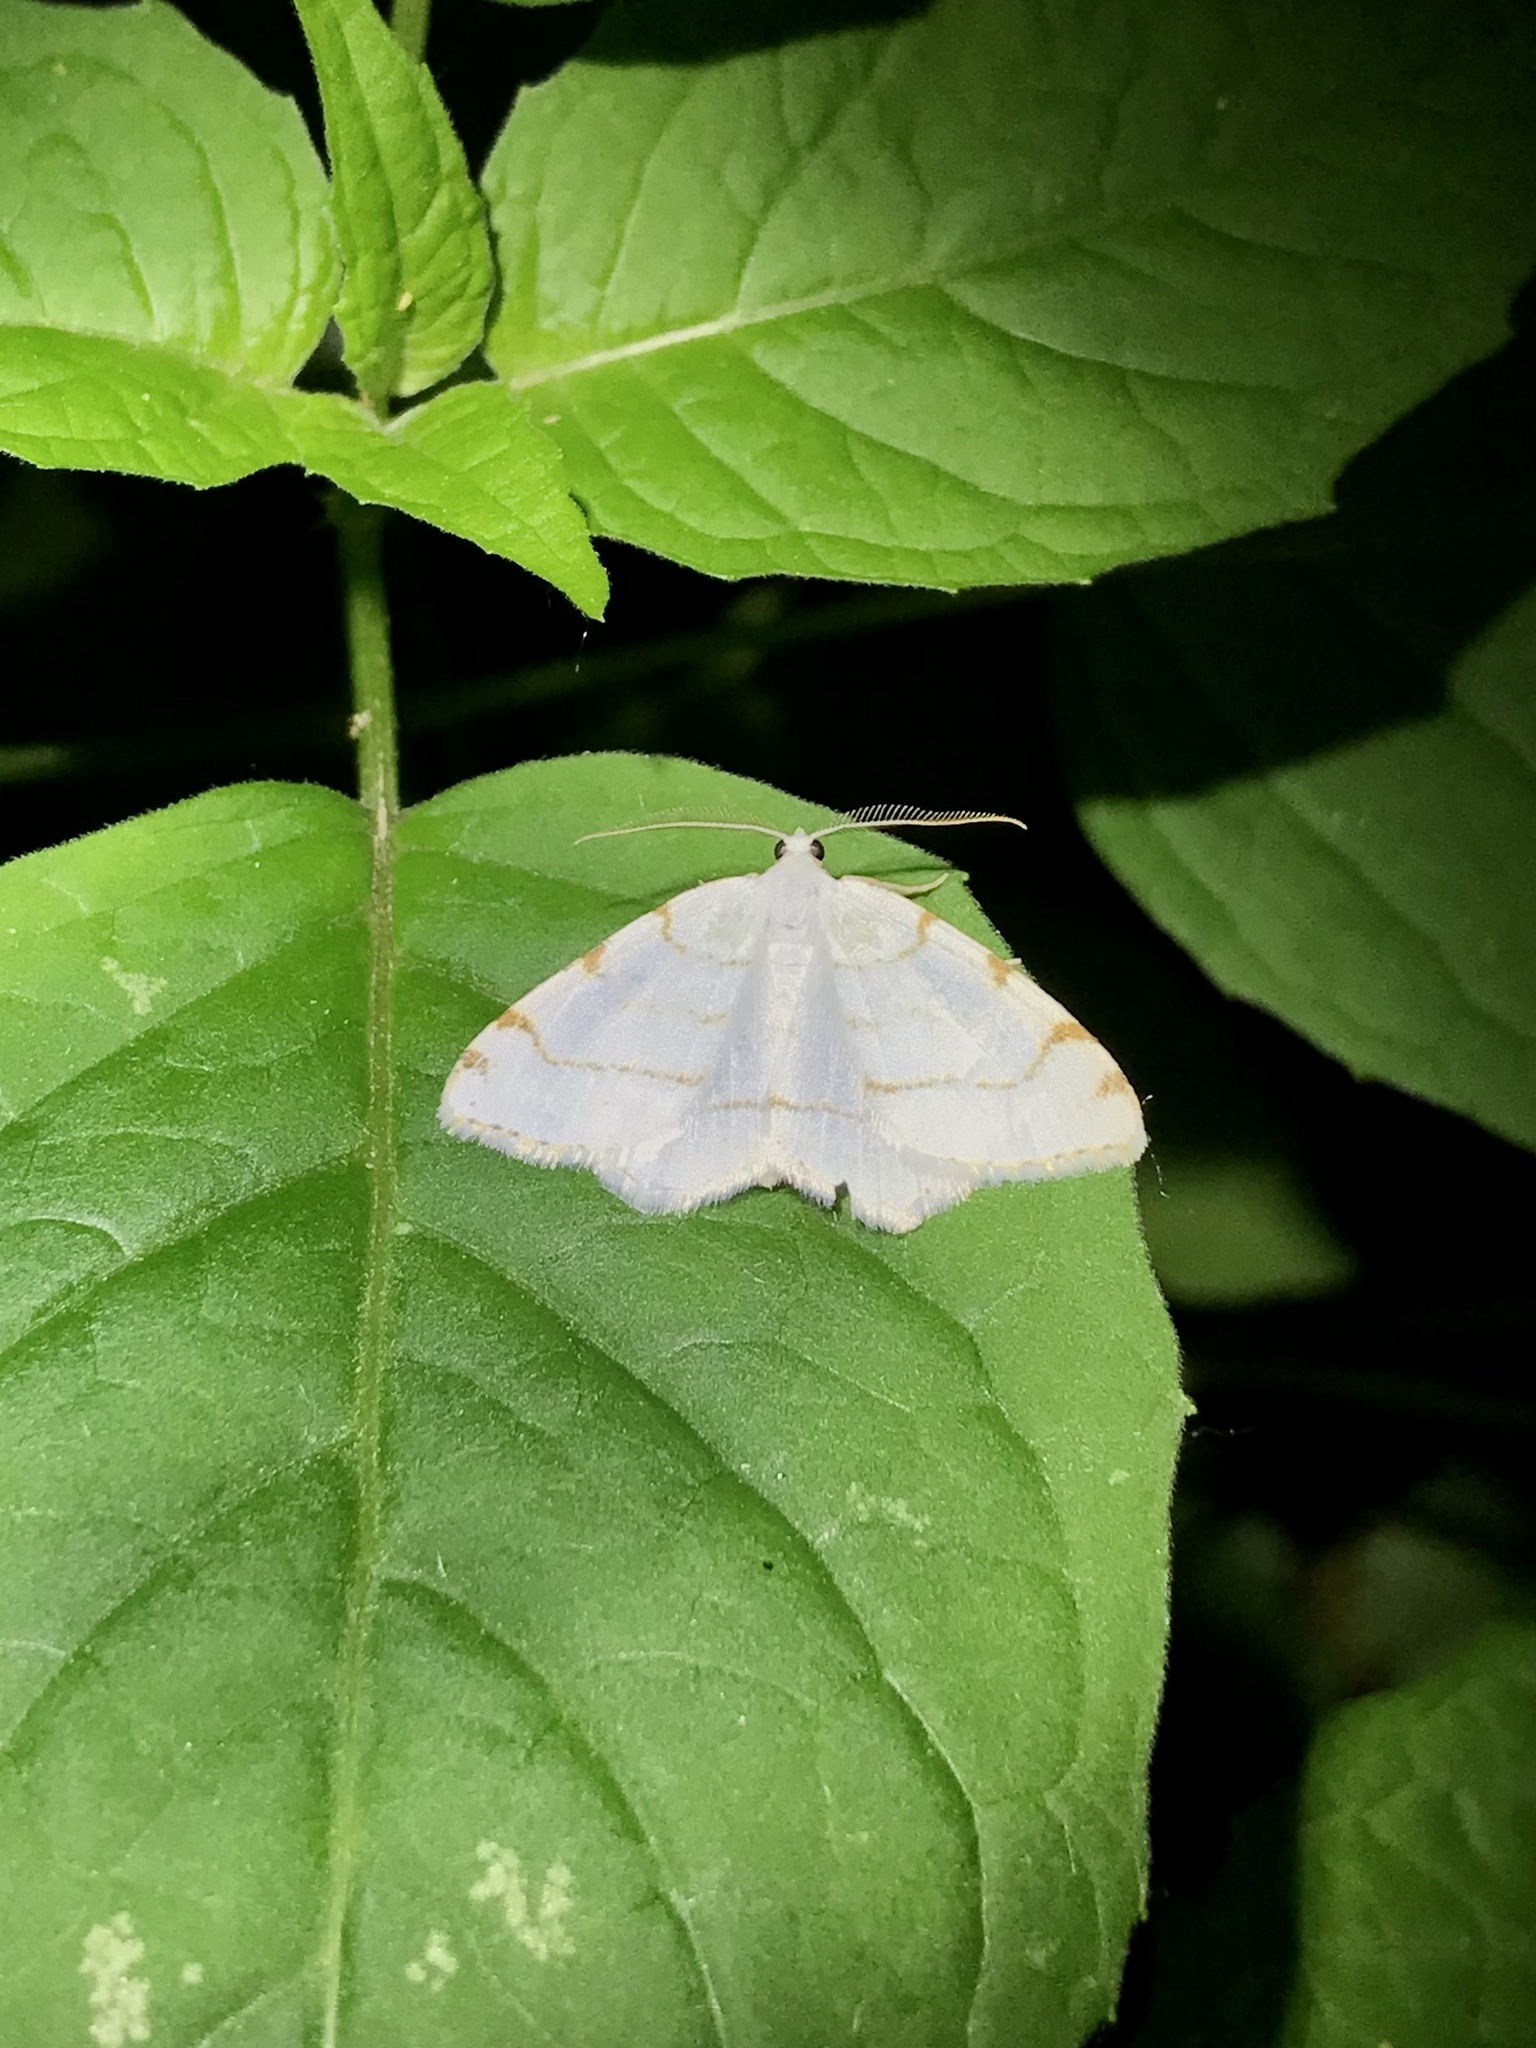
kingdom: Animalia
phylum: Arthropoda
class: Insecta
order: Lepidoptera
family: Geometridae
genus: Macaria
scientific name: Macaria pustularia
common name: Lesser maple spanworm moth
